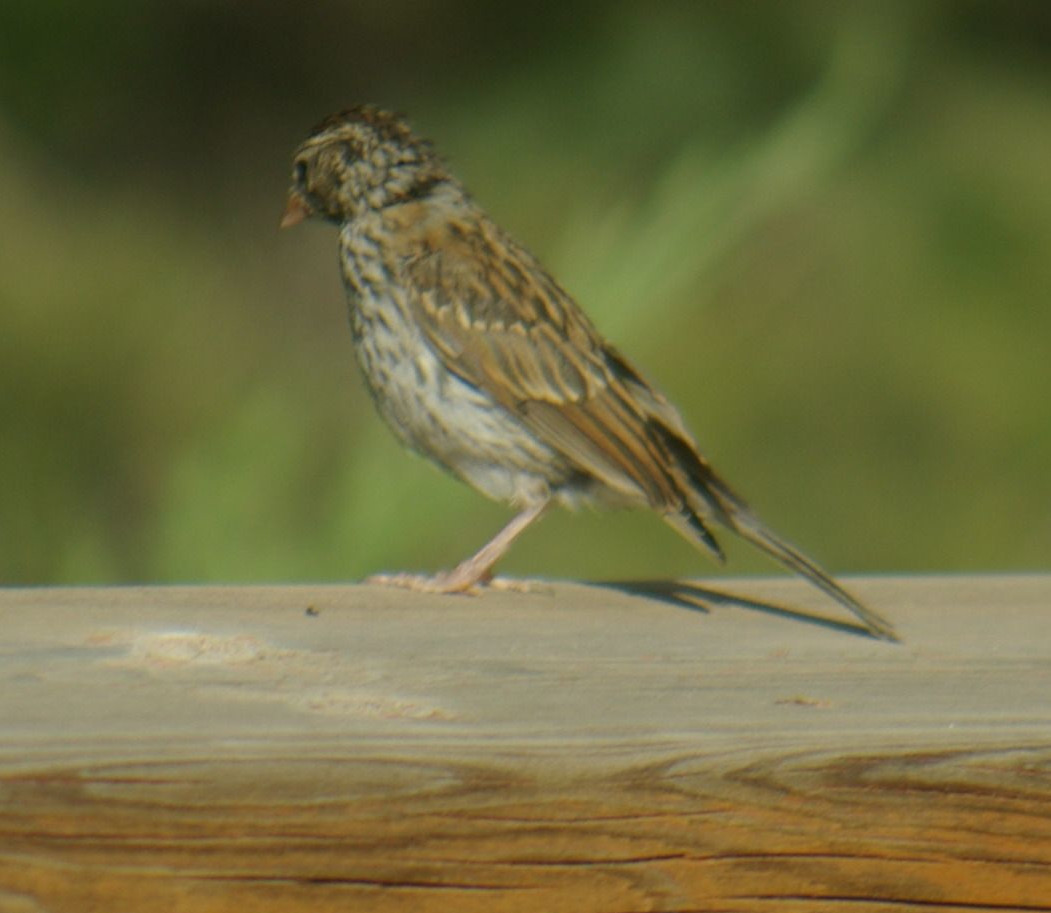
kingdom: Animalia
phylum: Chordata
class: Aves
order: Passeriformes
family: Passerellidae
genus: Spizella
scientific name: Spizella passerina
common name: Chipping sparrow
